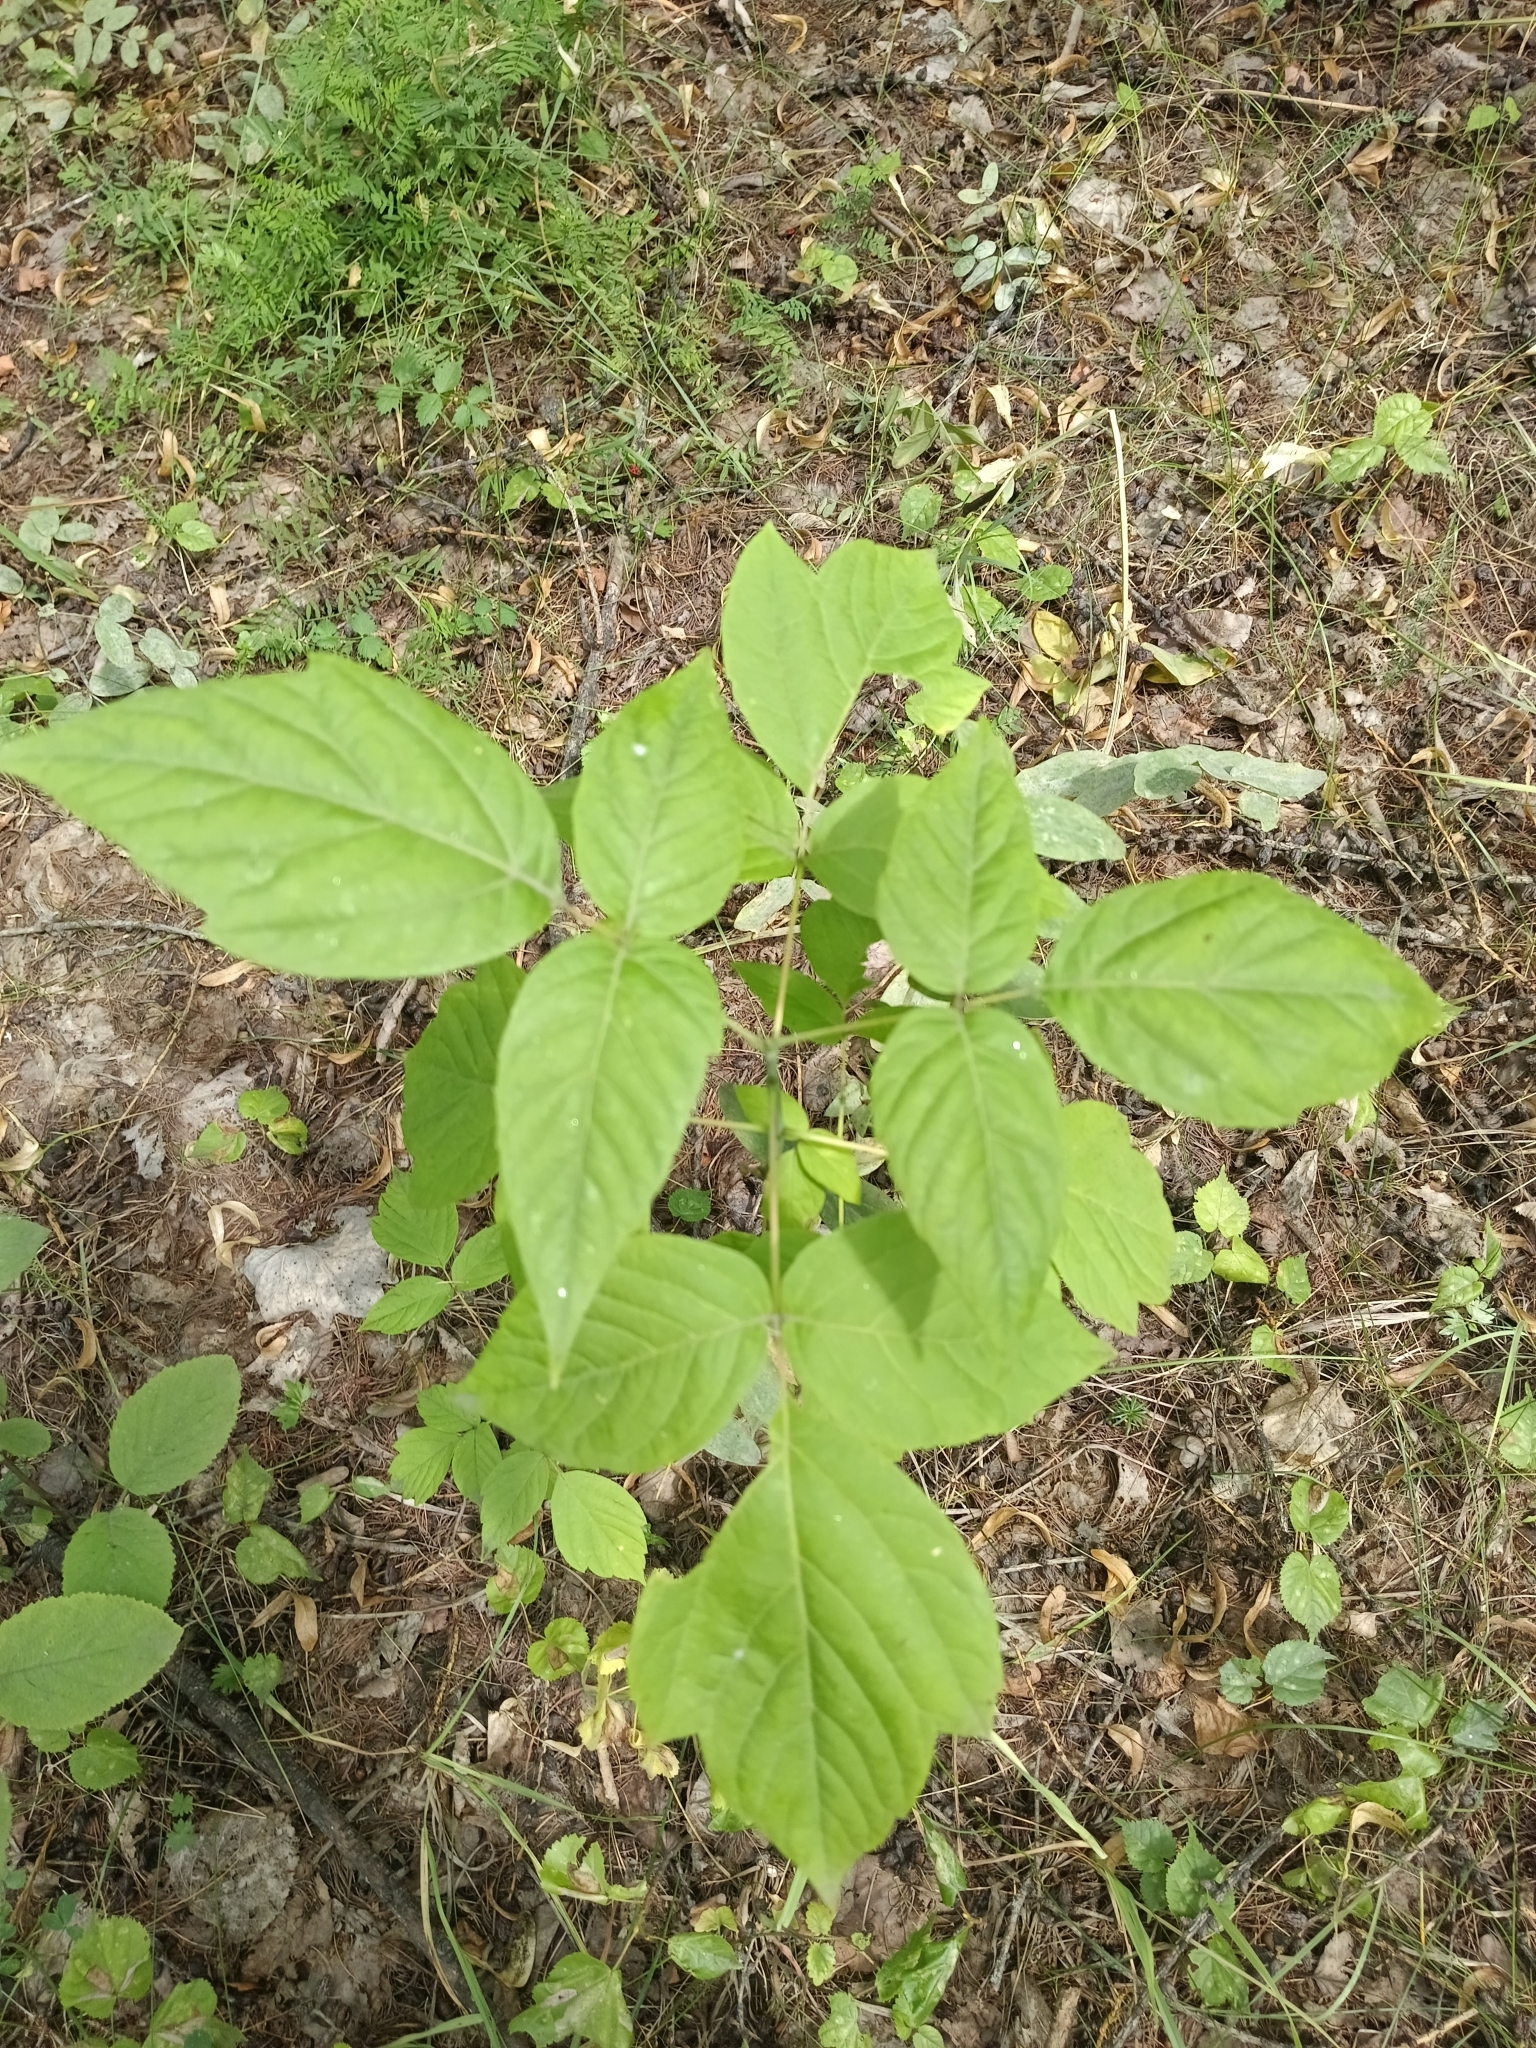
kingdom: Plantae
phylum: Tracheophyta
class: Magnoliopsida
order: Sapindales
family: Sapindaceae
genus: Acer
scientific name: Acer negundo
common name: Ashleaf maple
